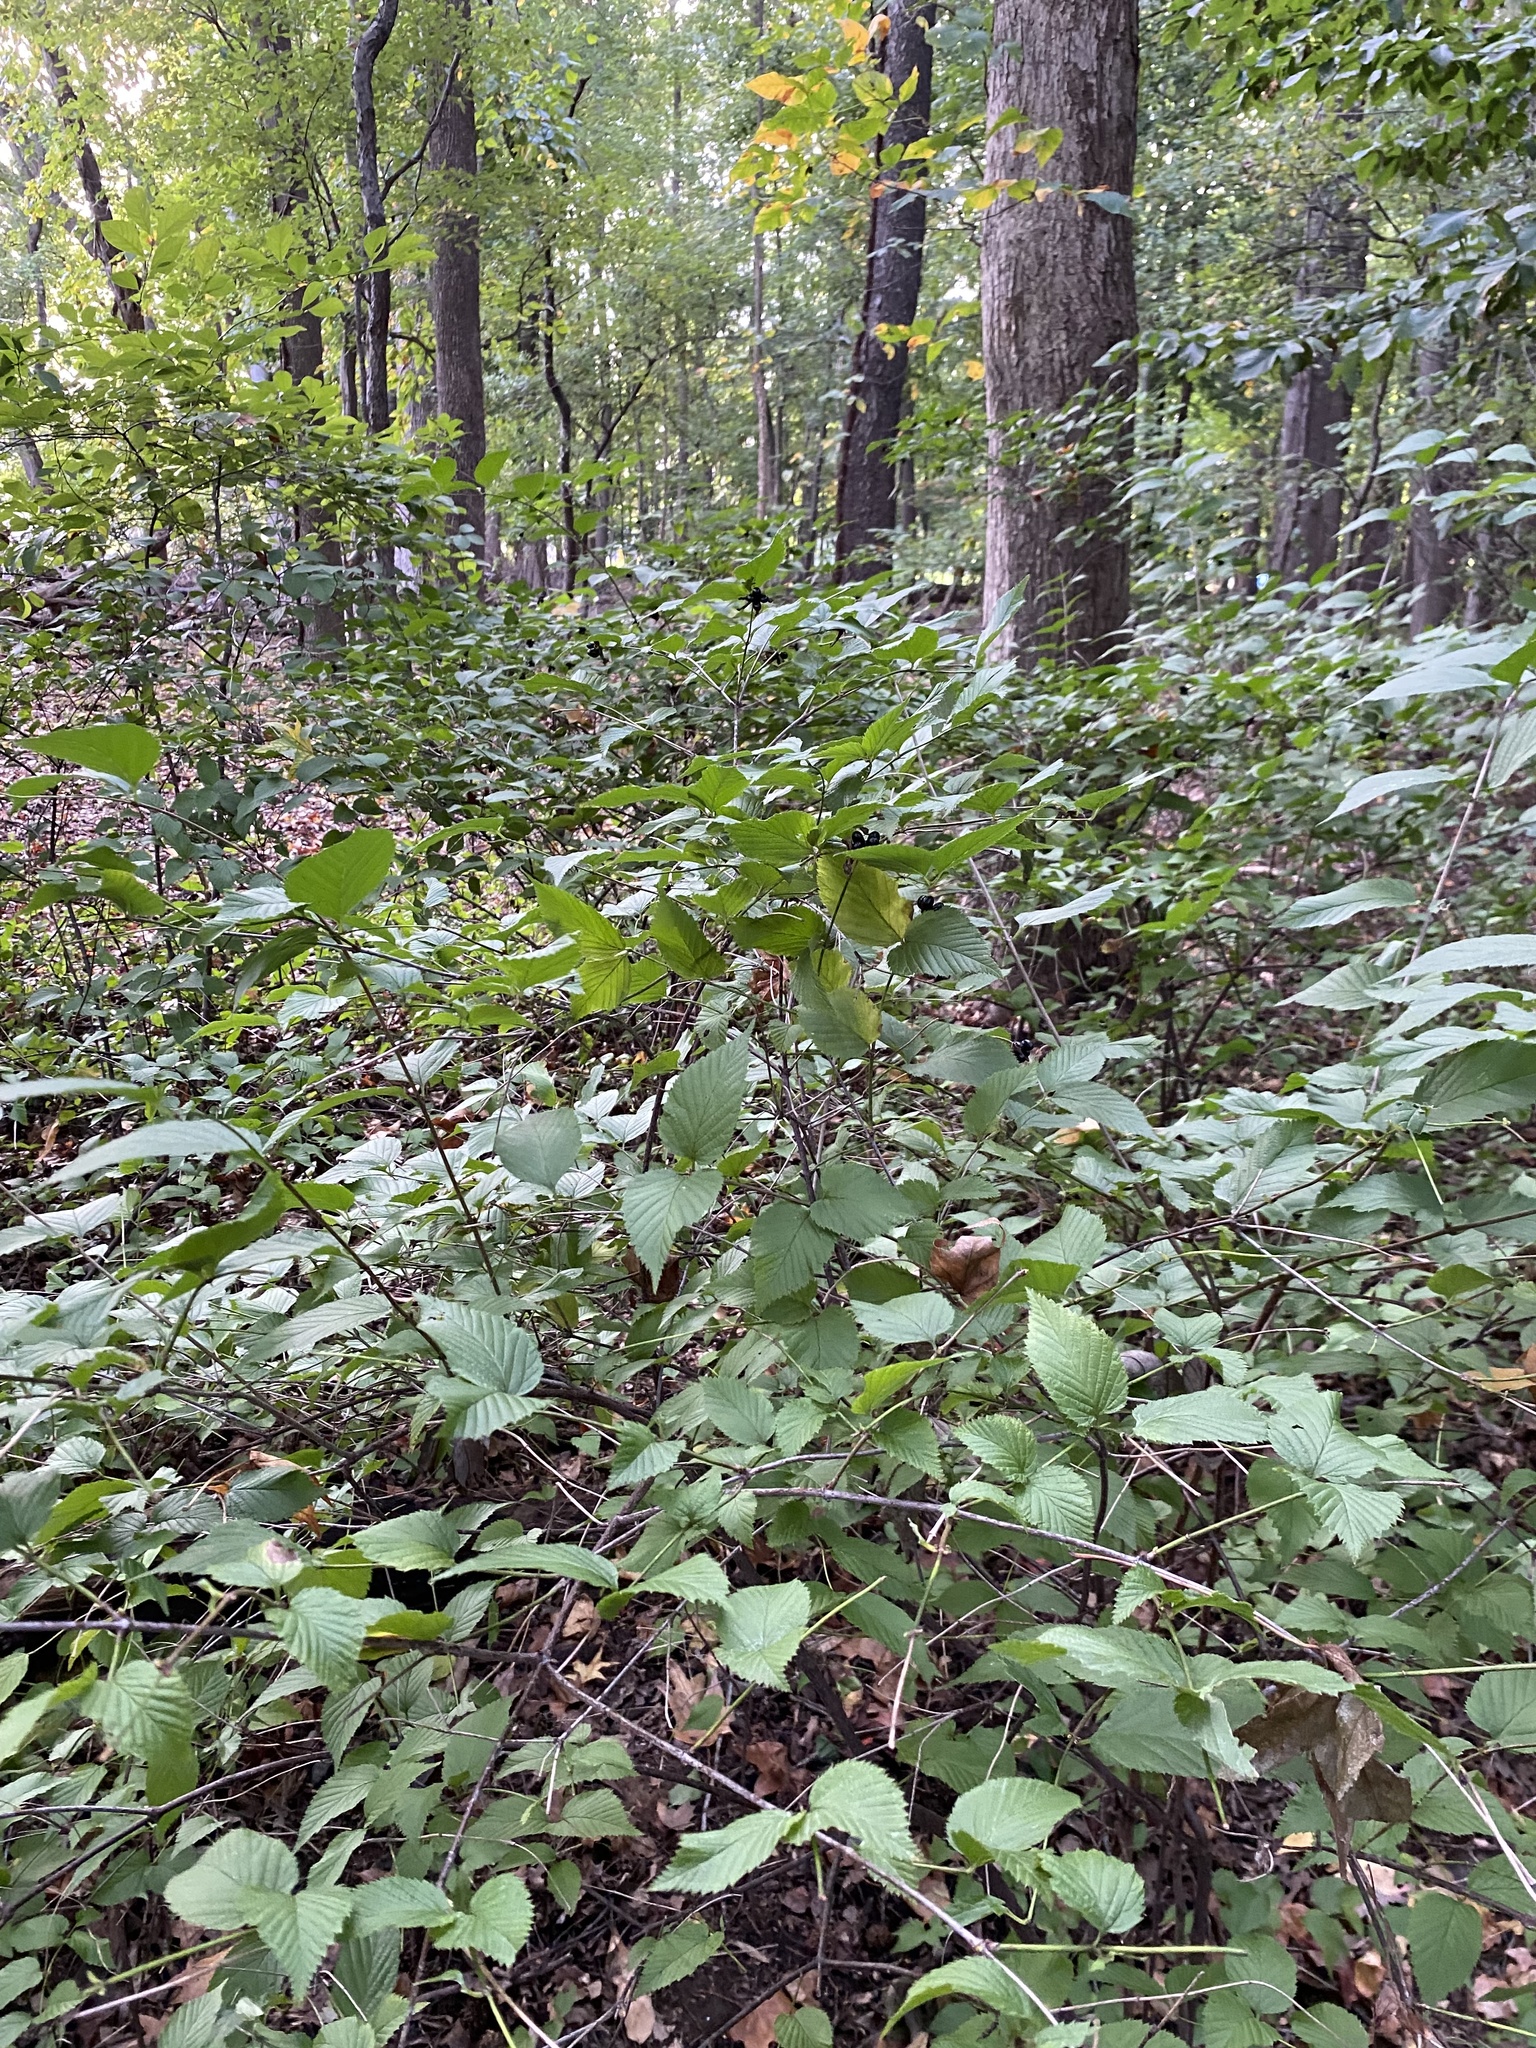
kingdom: Plantae
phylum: Tracheophyta
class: Magnoliopsida
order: Rosales
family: Rosaceae
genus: Rhodotypos
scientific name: Rhodotypos scandens
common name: Jetbead
